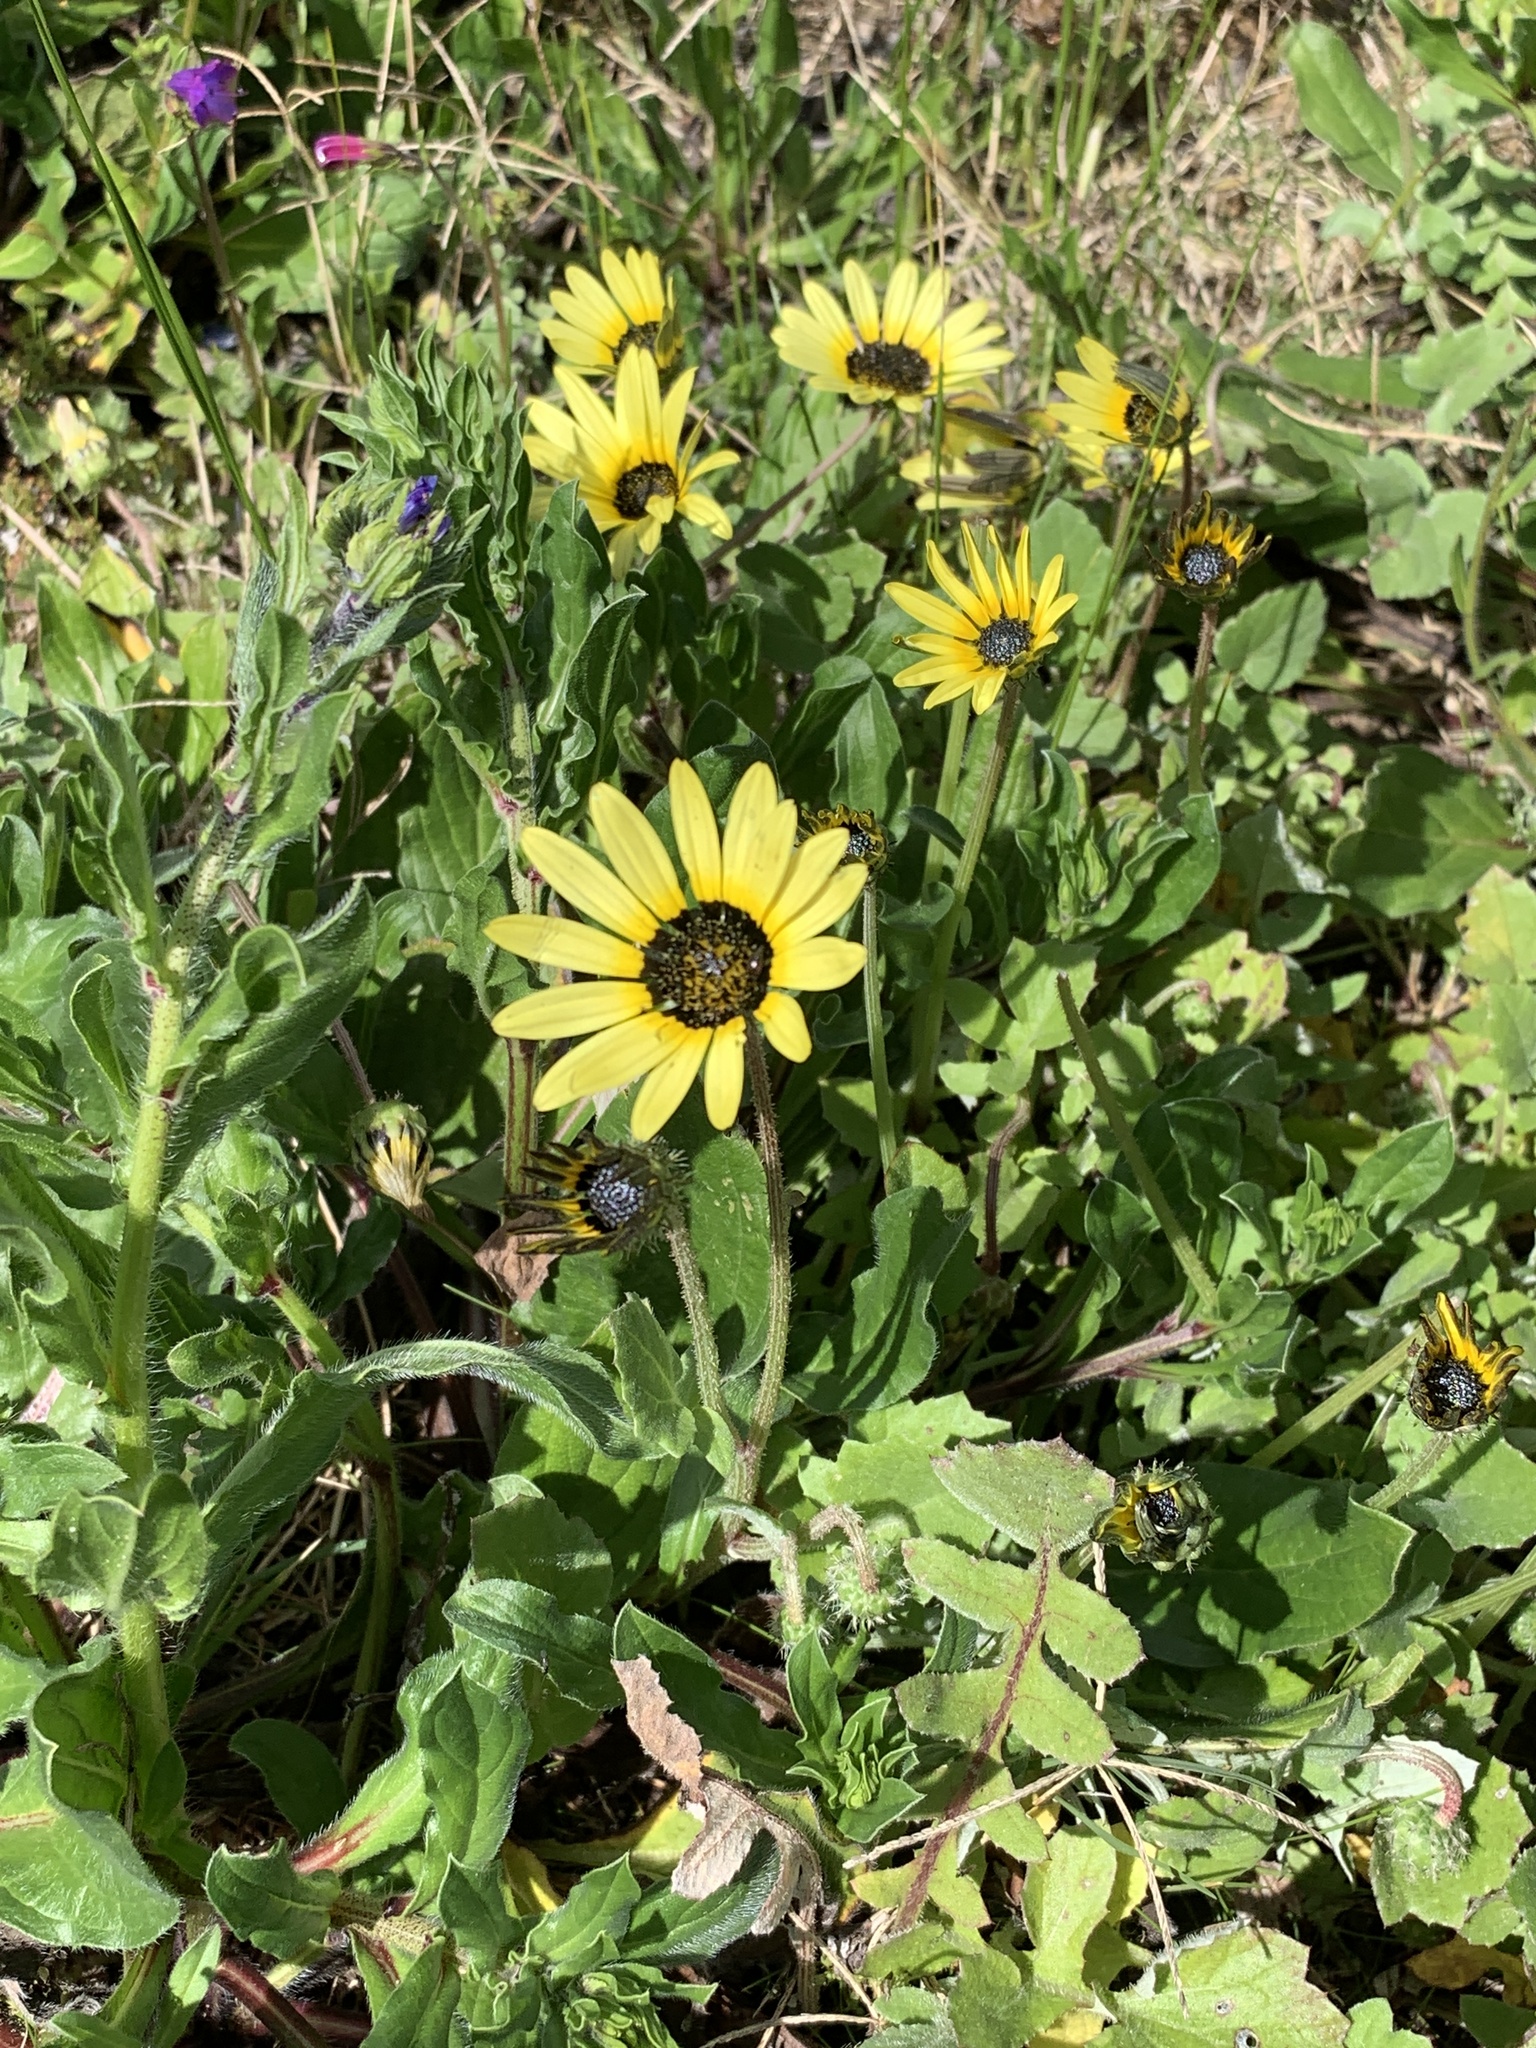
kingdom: Plantae
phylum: Tracheophyta
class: Magnoliopsida
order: Asterales
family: Asteraceae
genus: Arctotheca
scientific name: Arctotheca calendula
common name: Capeweed
